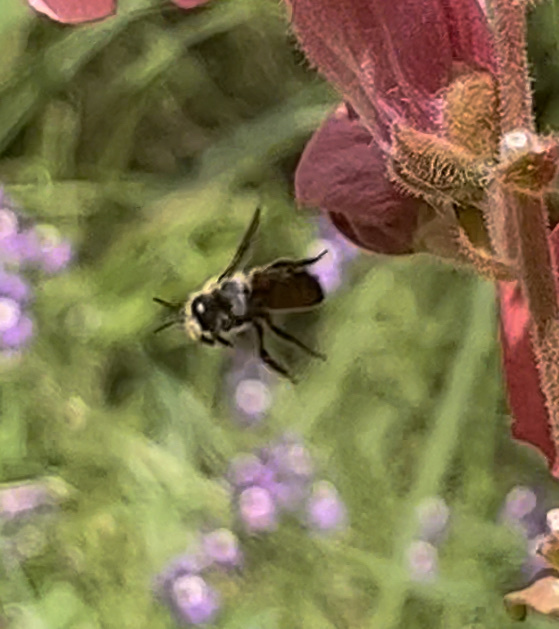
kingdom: Animalia
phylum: Arthropoda
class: Insecta
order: Hymenoptera
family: Megachilidae
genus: Anthidium
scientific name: Anthidium manicatum
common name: Wool carder bee
